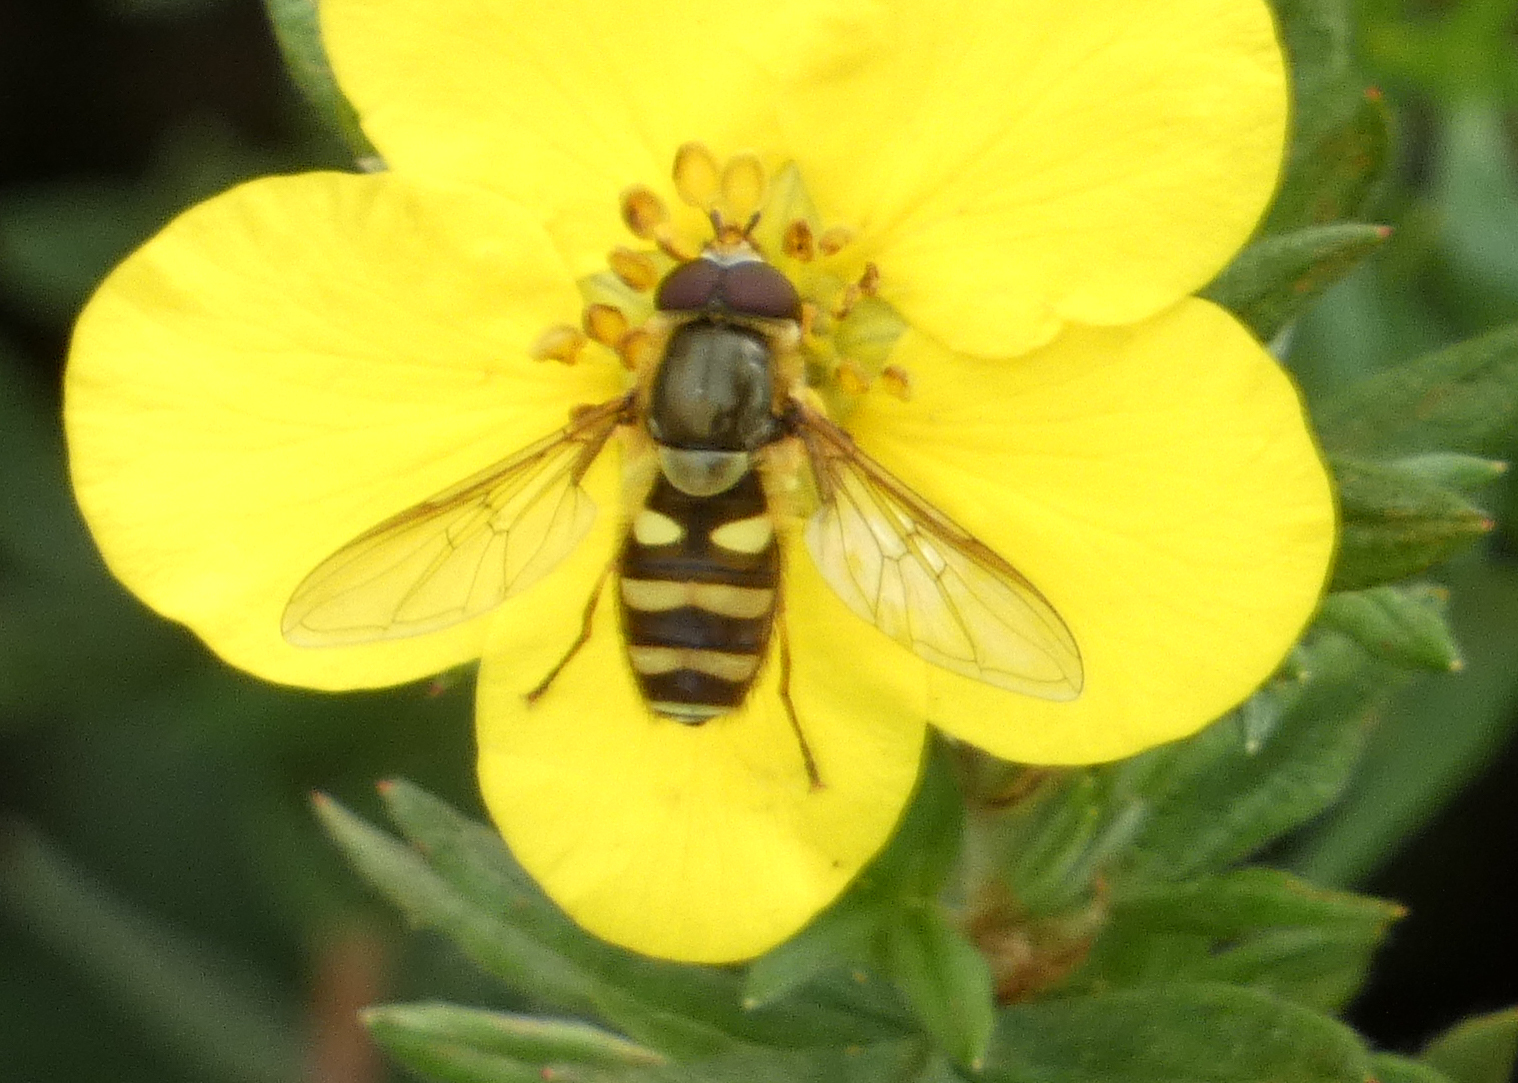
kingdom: Animalia
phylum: Arthropoda
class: Insecta
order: Diptera
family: Syrphidae
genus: Syrphus
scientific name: Syrphus opinator
